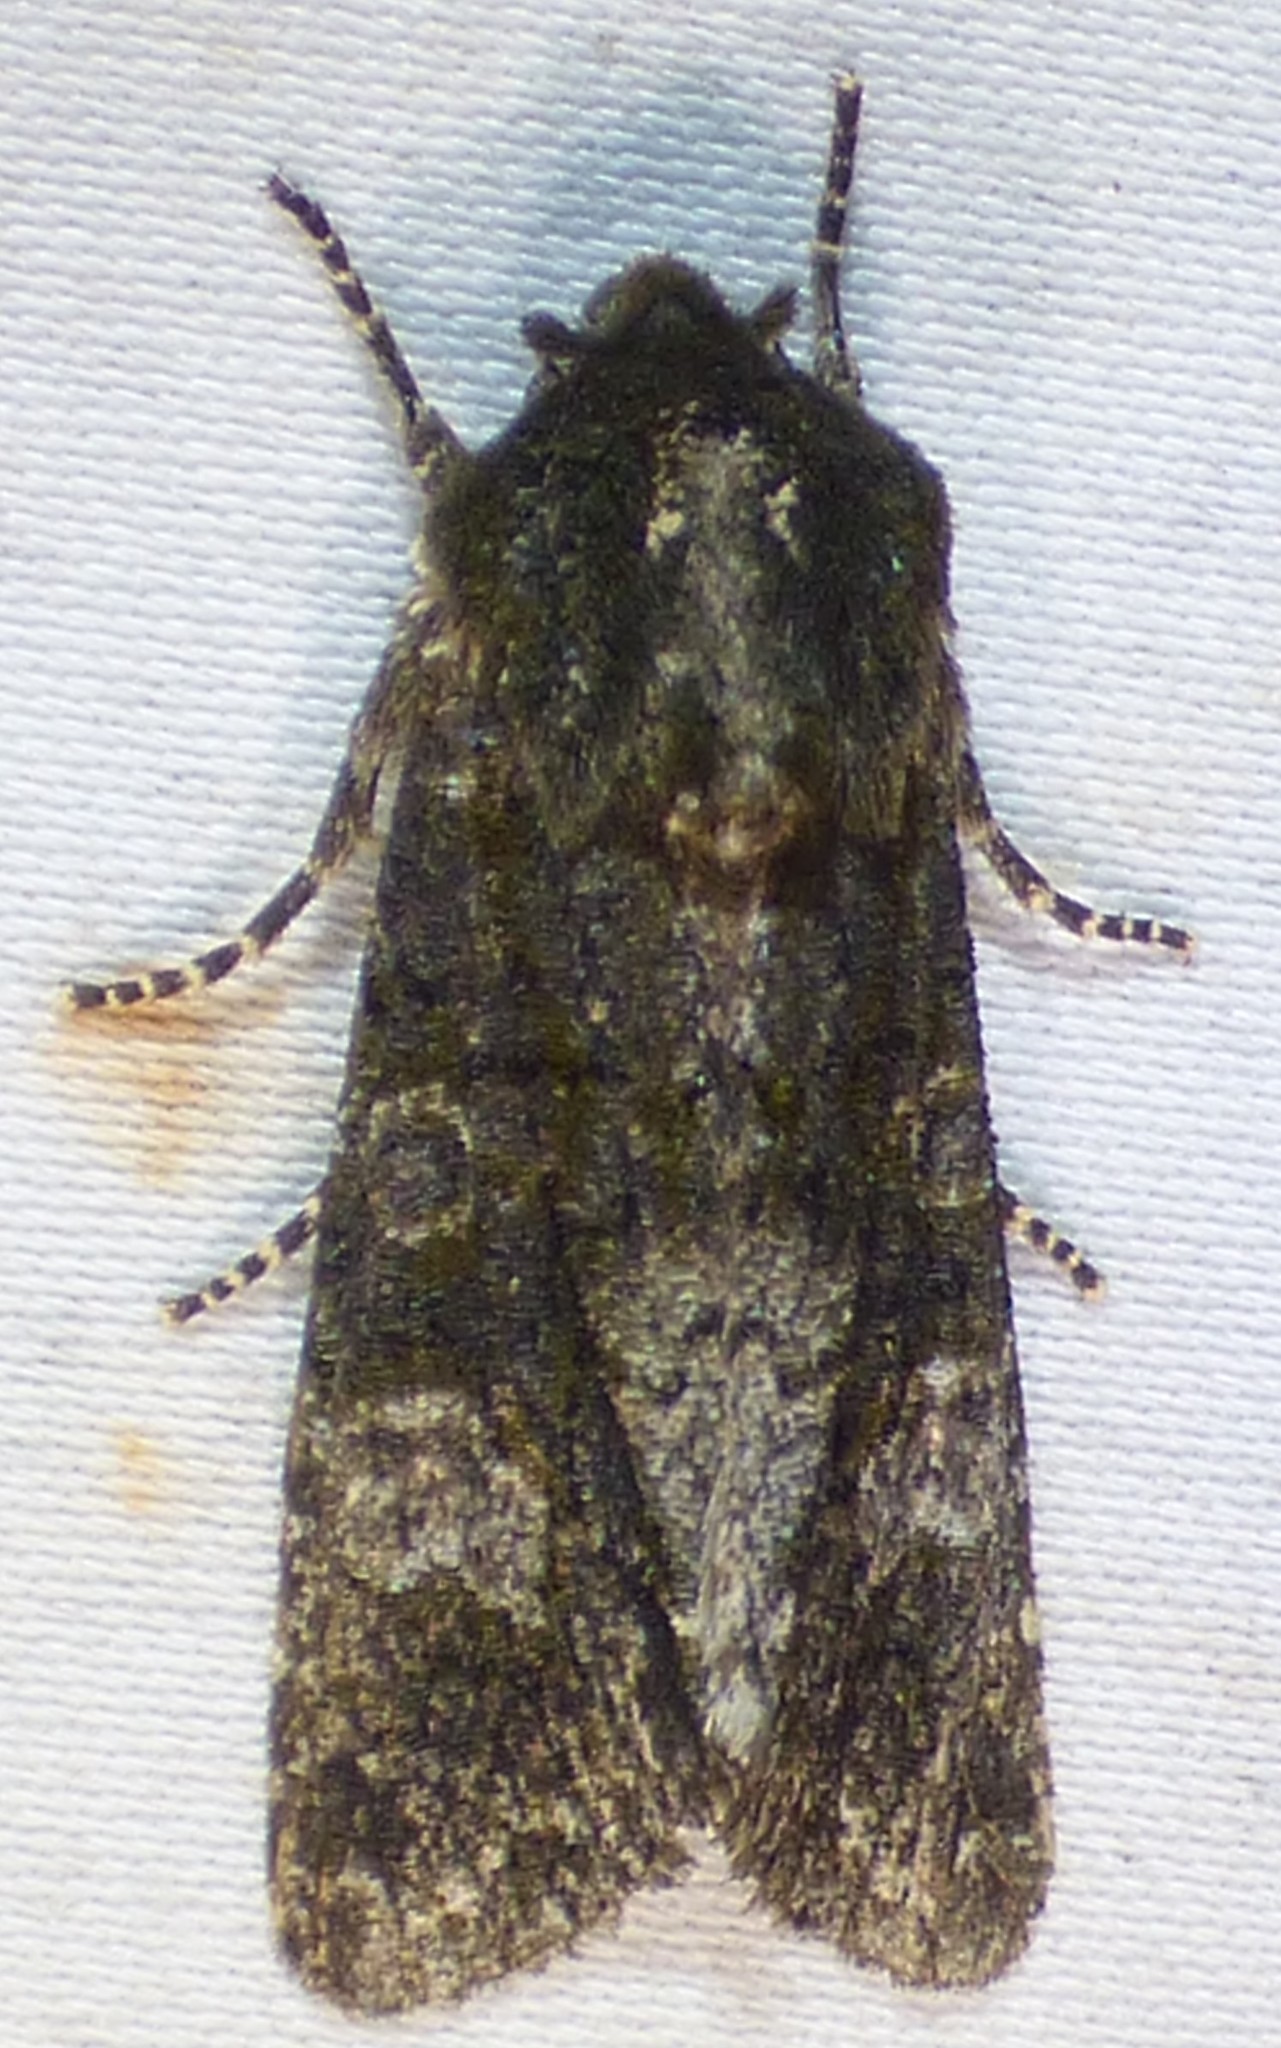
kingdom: Animalia
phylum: Arthropoda
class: Insecta
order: Lepidoptera
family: Noctuidae
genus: Psaphida
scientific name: Psaphida grotei
